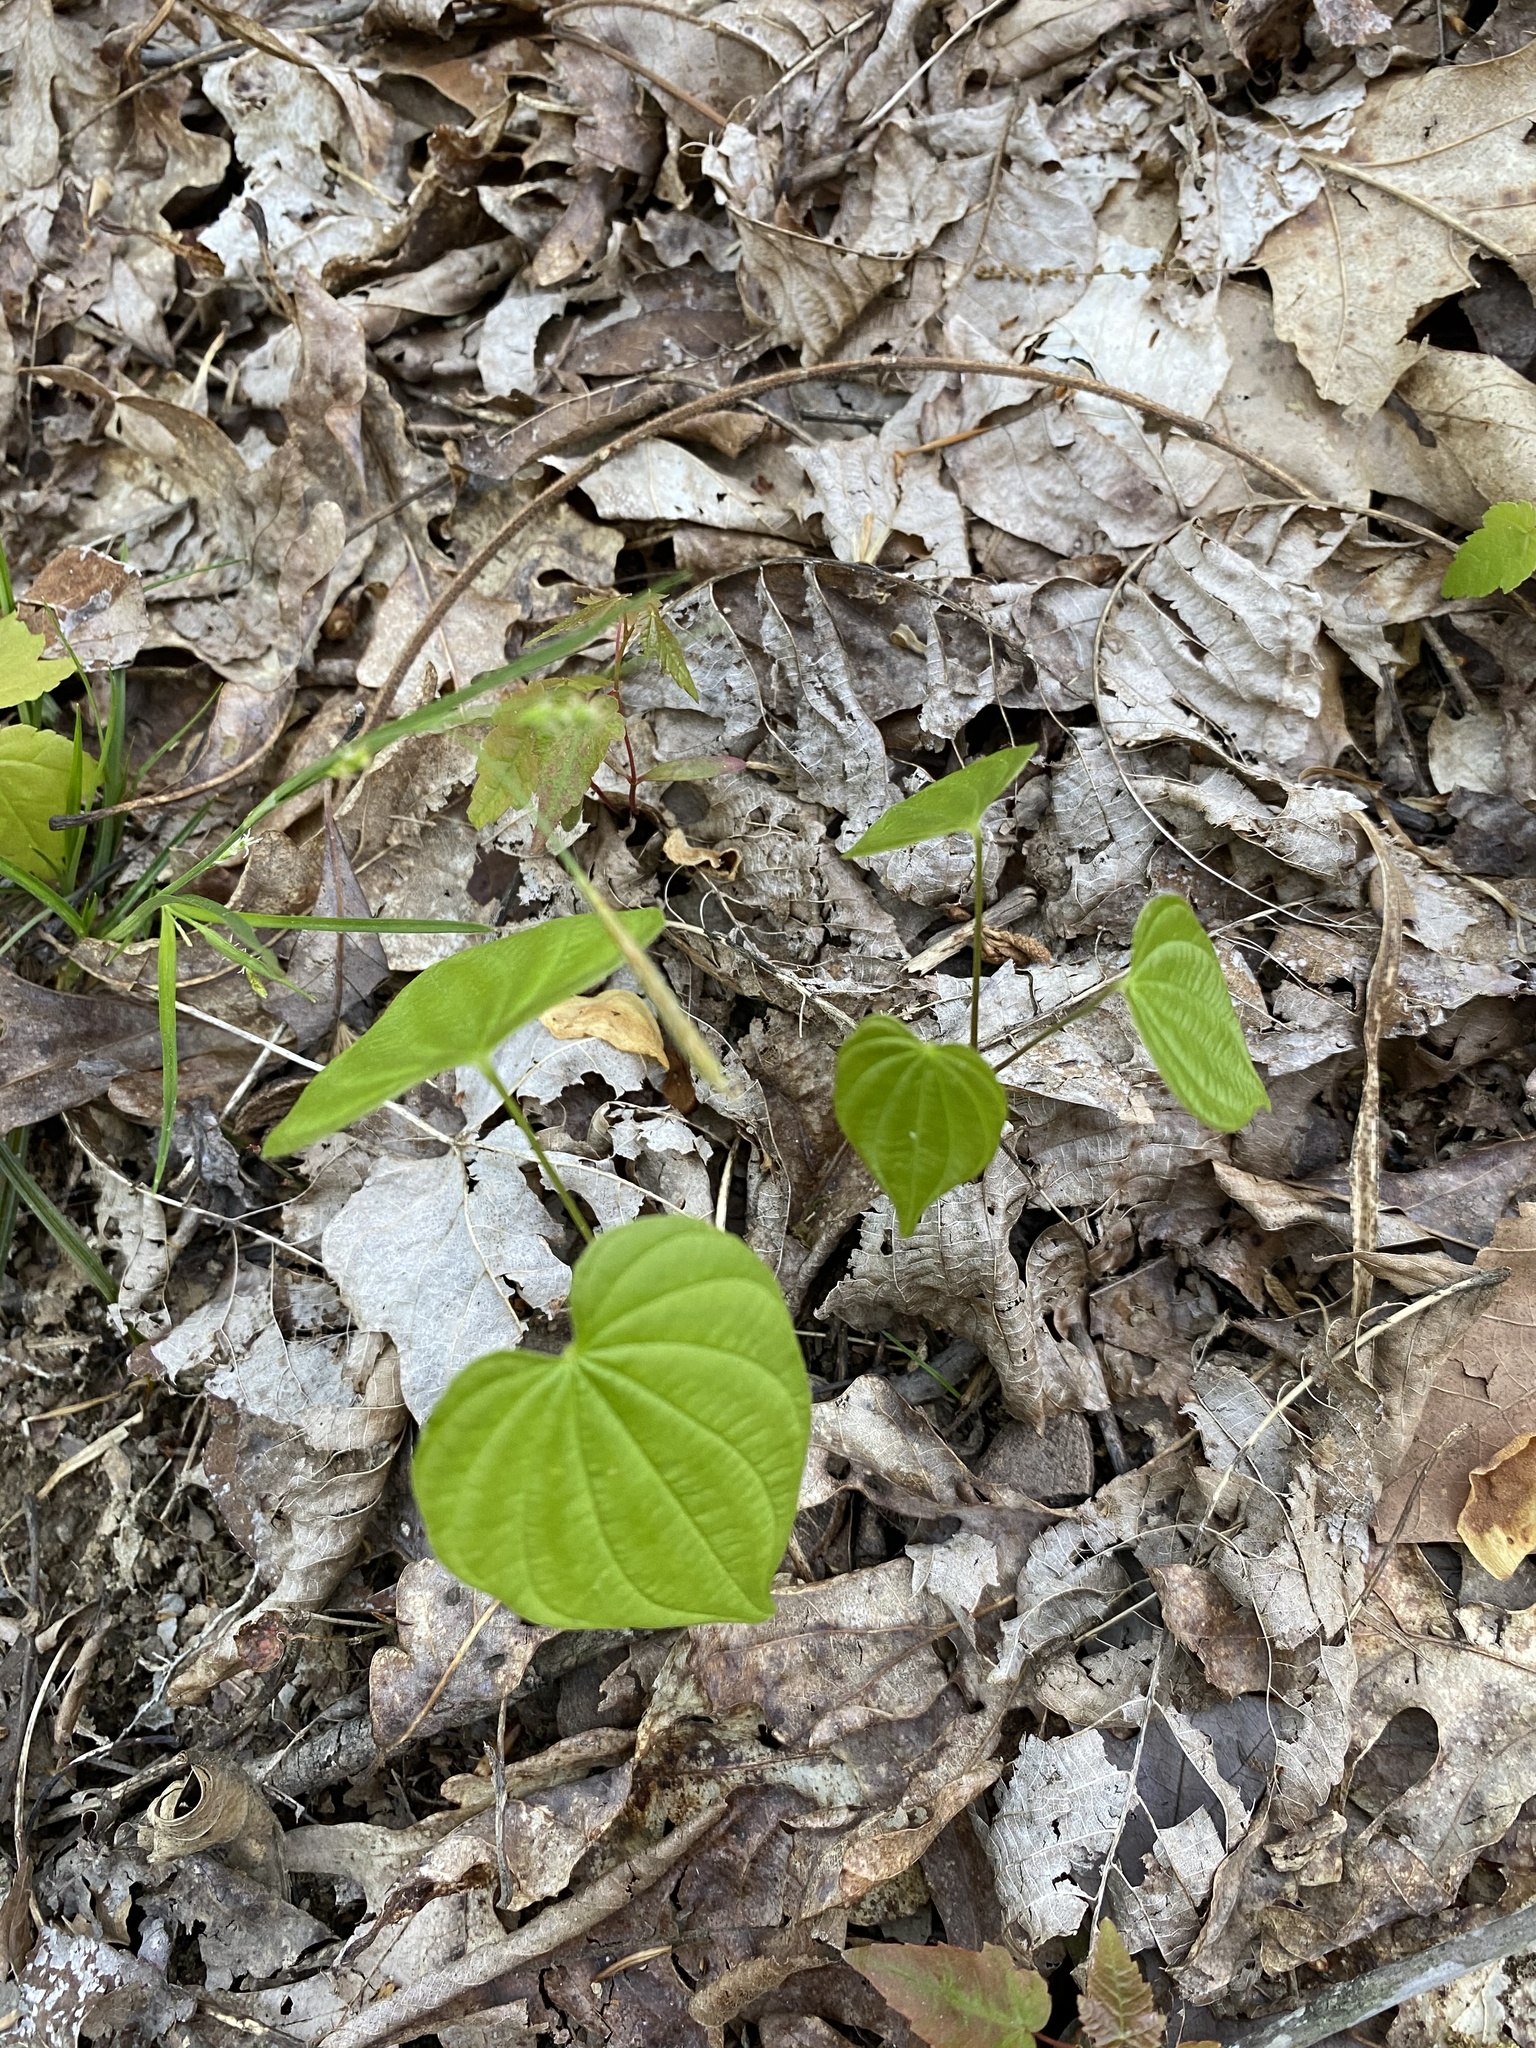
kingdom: Plantae
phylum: Tracheophyta
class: Liliopsida
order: Dioscoreales
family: Dioscoreaceae
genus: Dioscorea
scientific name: Dioscorea villosa
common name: Wild yam
